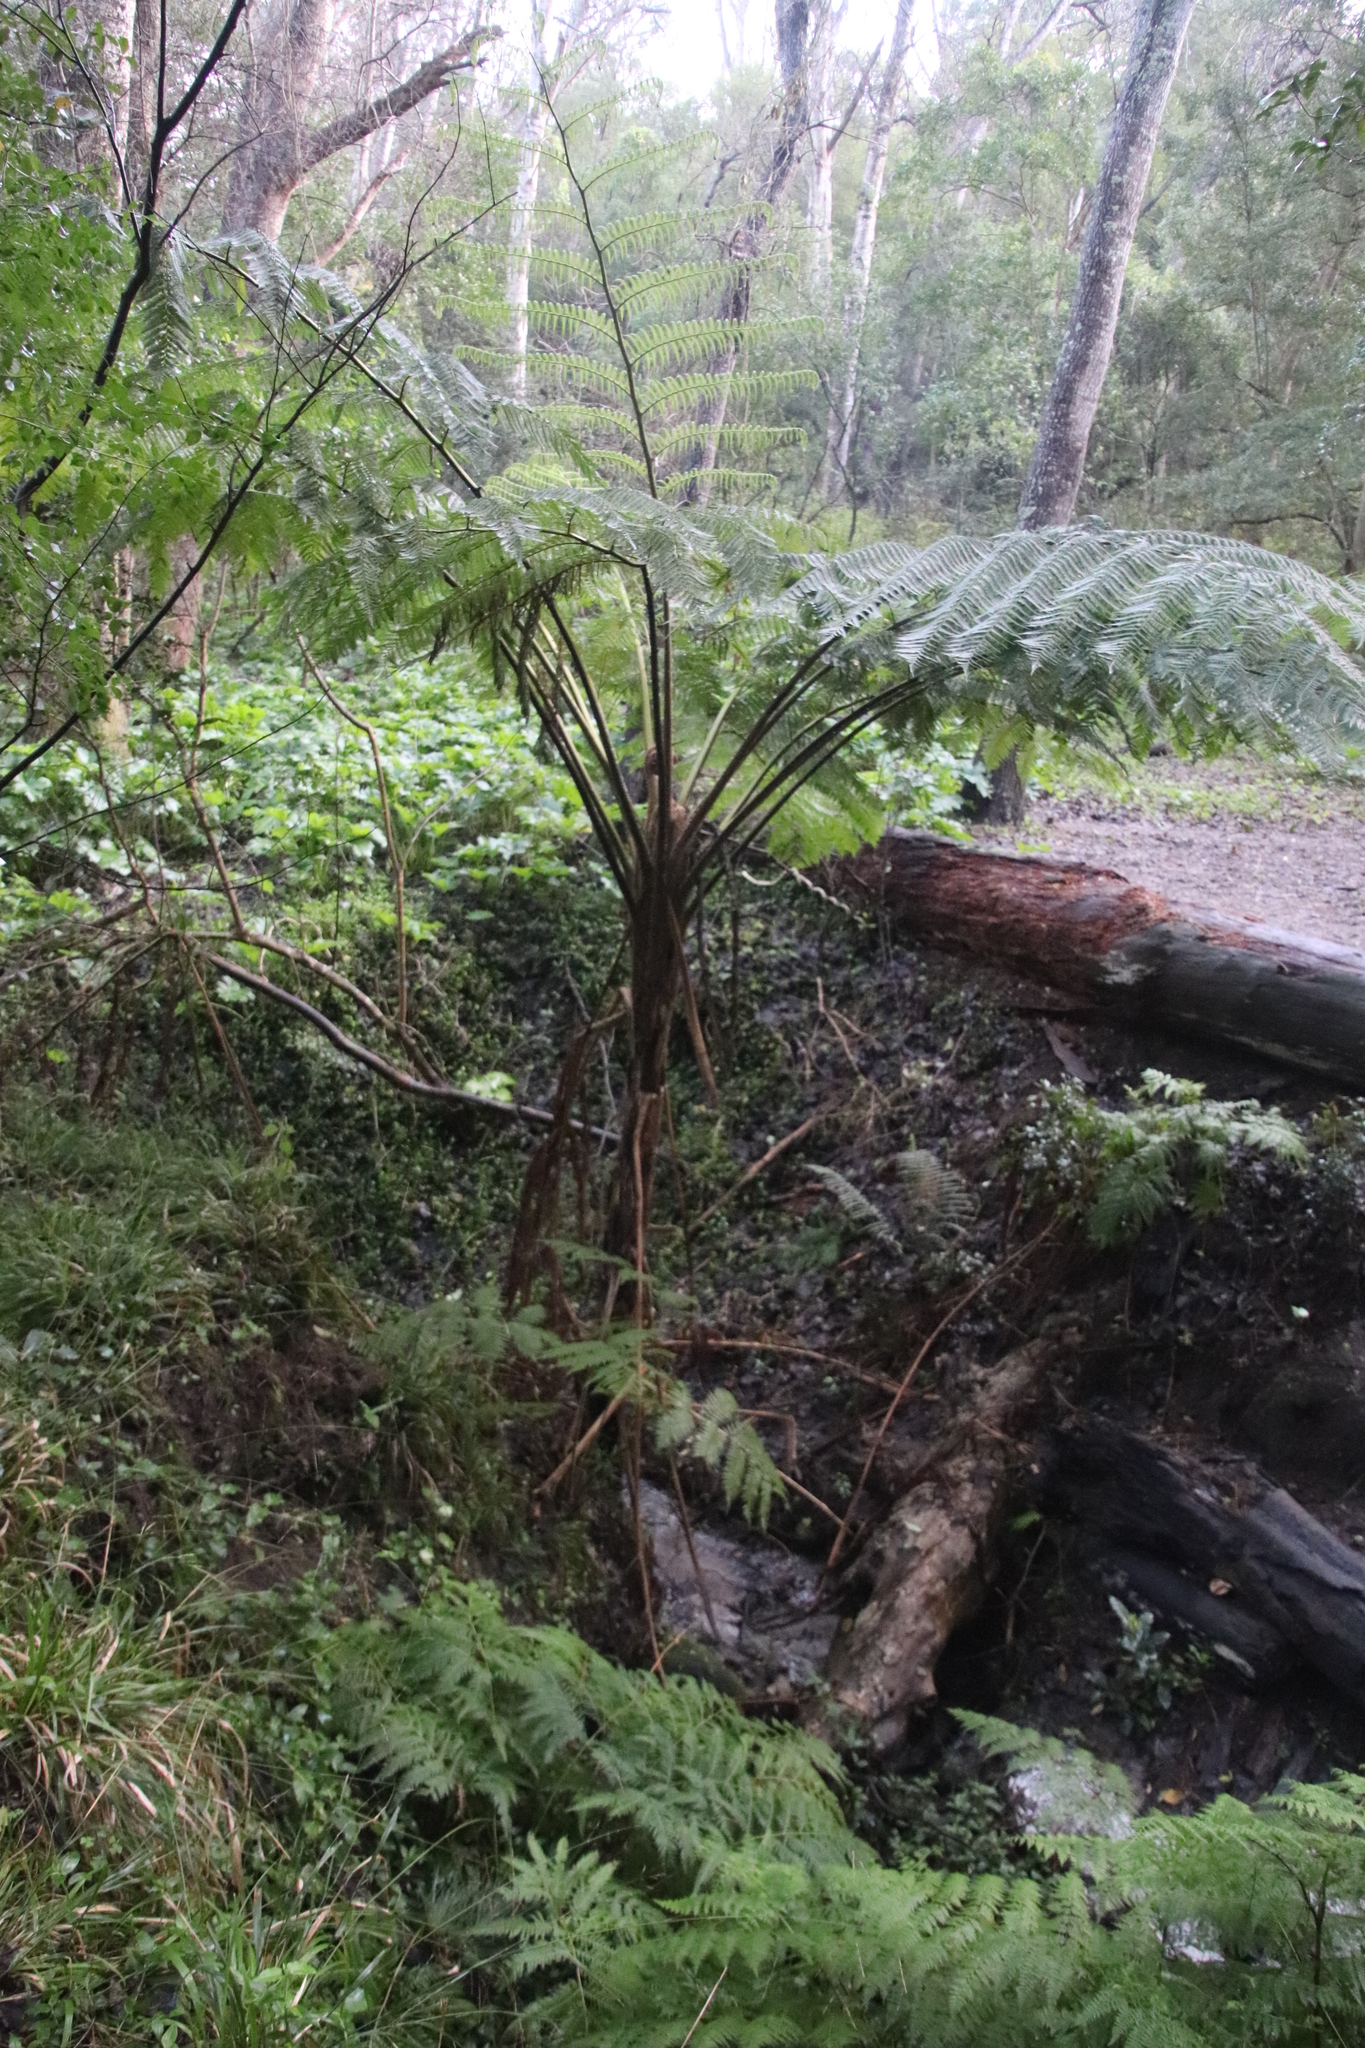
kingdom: Plantae
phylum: Tracheophyta
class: Polypodiopsida
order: Cyatheales
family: Cyatheaceae
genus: Sphaeropteris
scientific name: Sphaeropteris cooperi
